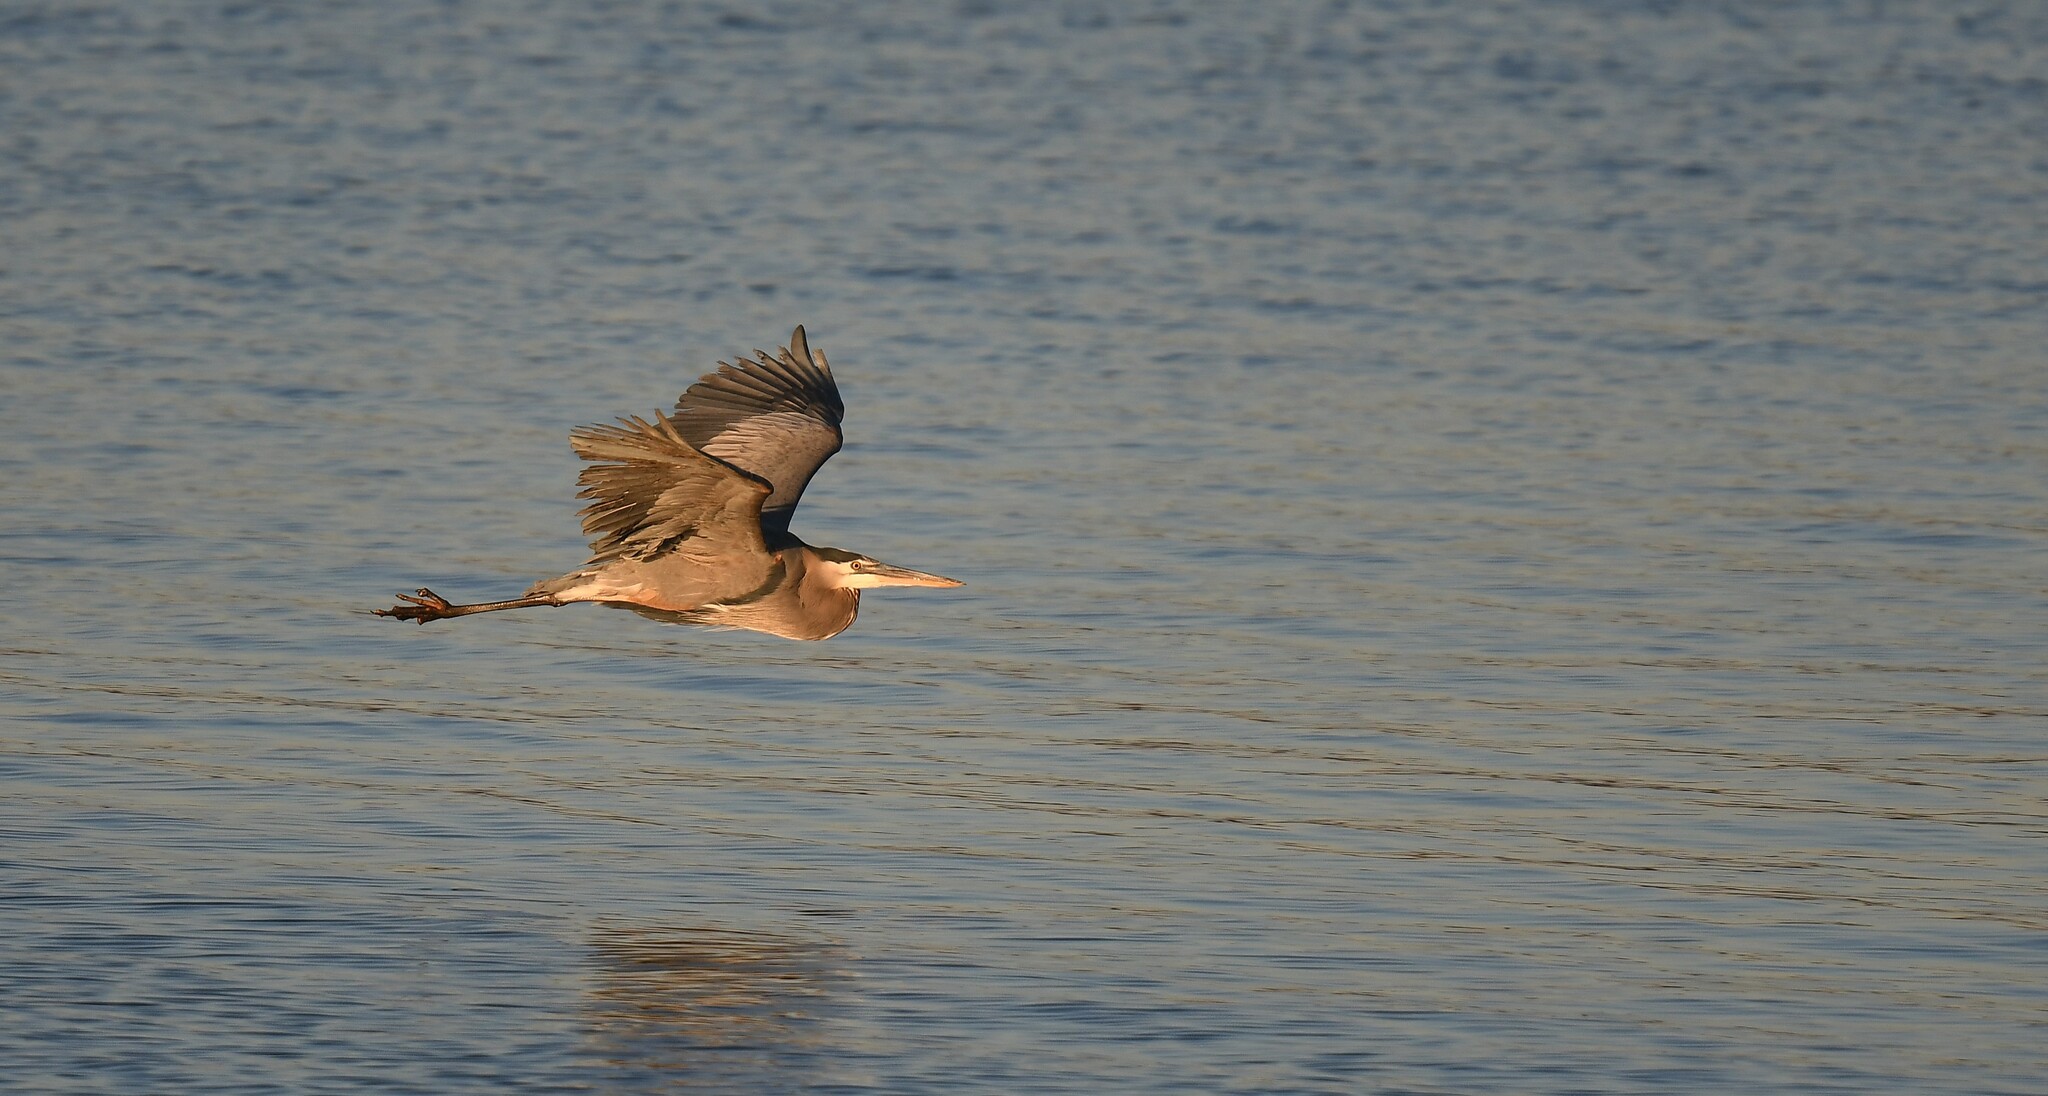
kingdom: Animalia
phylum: Chordata
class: Aves
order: Pelecaniformes
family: Ardeidae
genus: Ardea
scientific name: Ardea herodias
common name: Great blue heron
